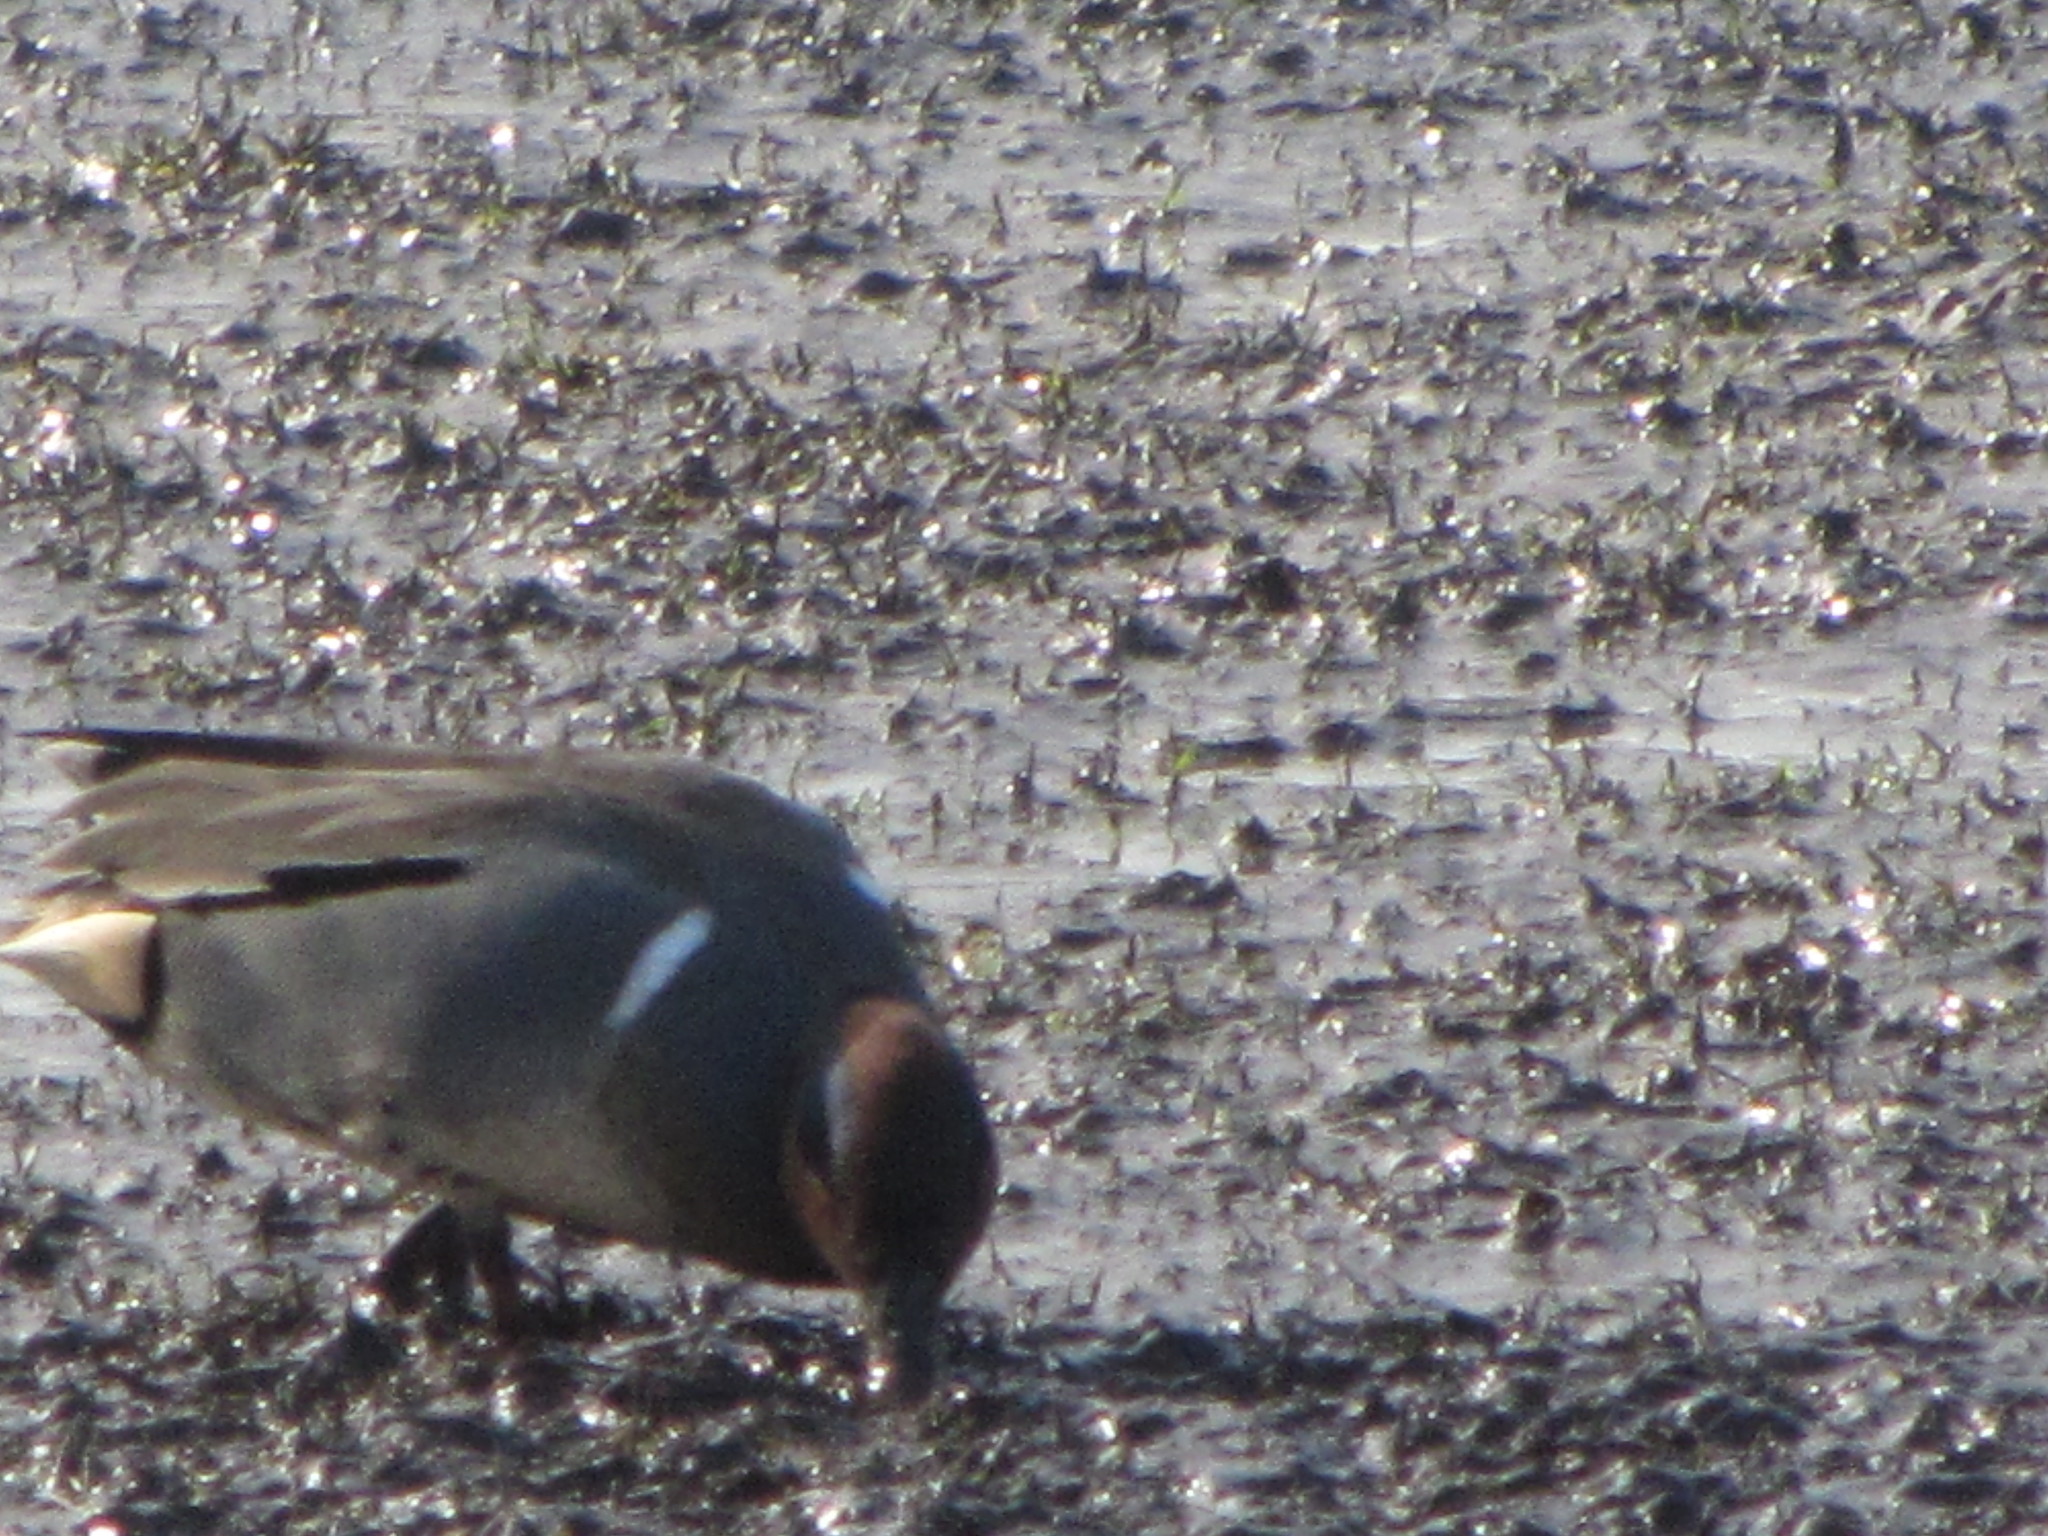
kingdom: Animalia
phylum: Chordata
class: Aves
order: Anseriformes
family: Anatidae
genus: Anas
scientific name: Anas crecca
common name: Eurasian teal
